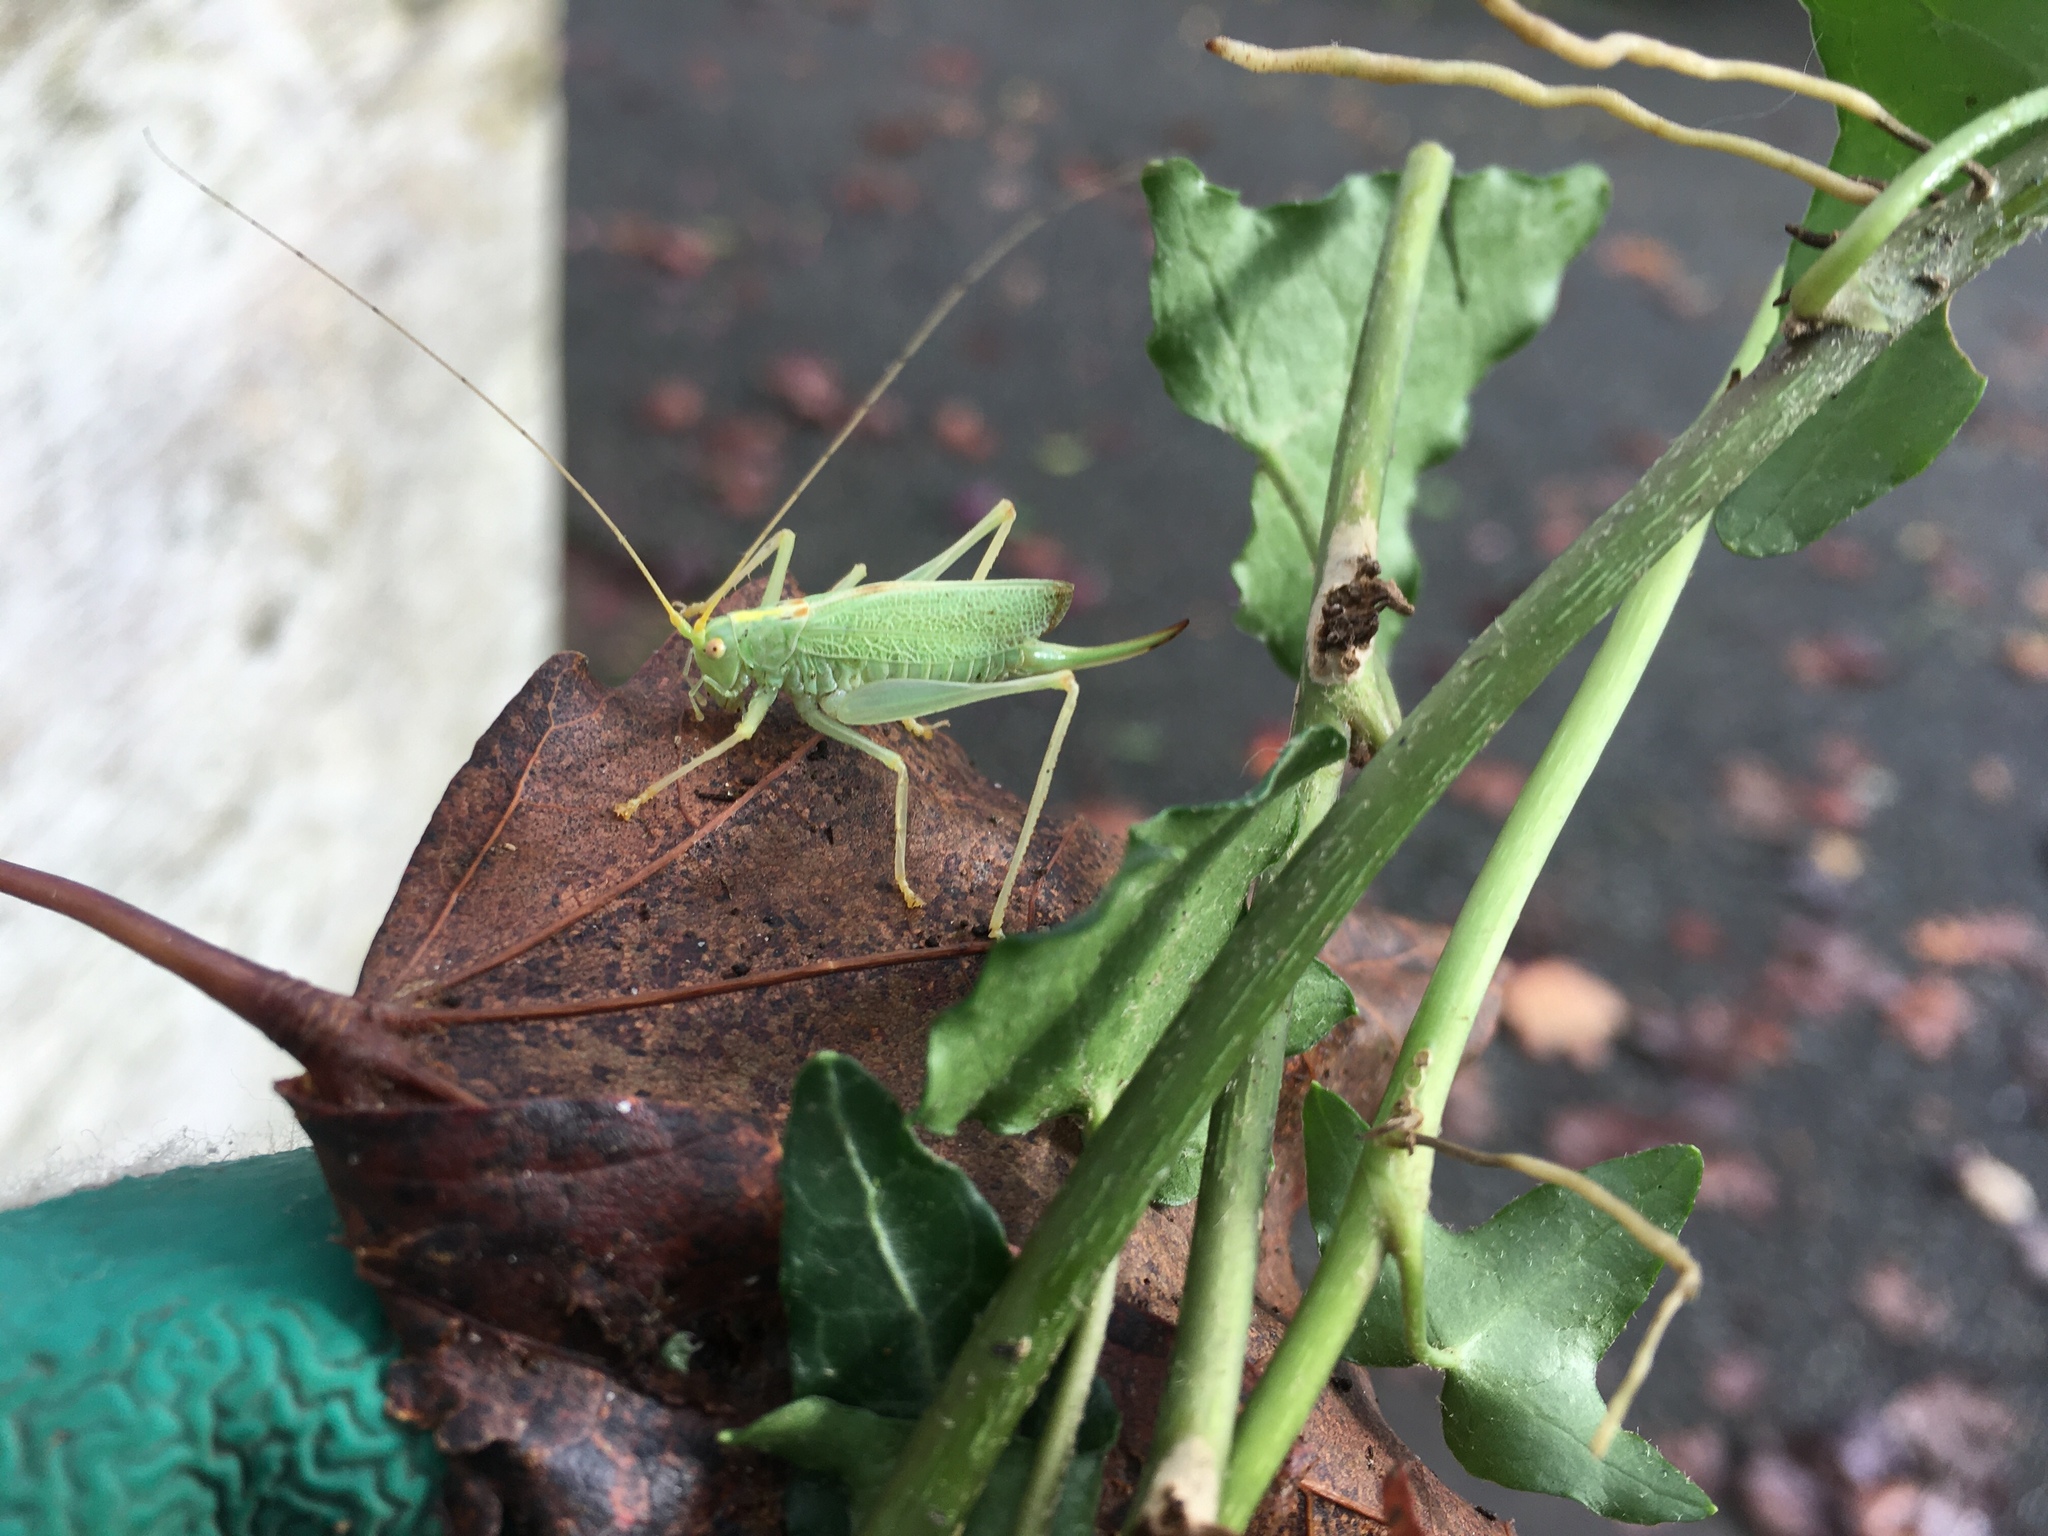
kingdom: Animalia
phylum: Arthropoda
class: Insecta
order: Orthoptera
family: Tettigoniidae
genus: Meconema
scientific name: Meconema thalassinum
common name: Oak bush-cricket
